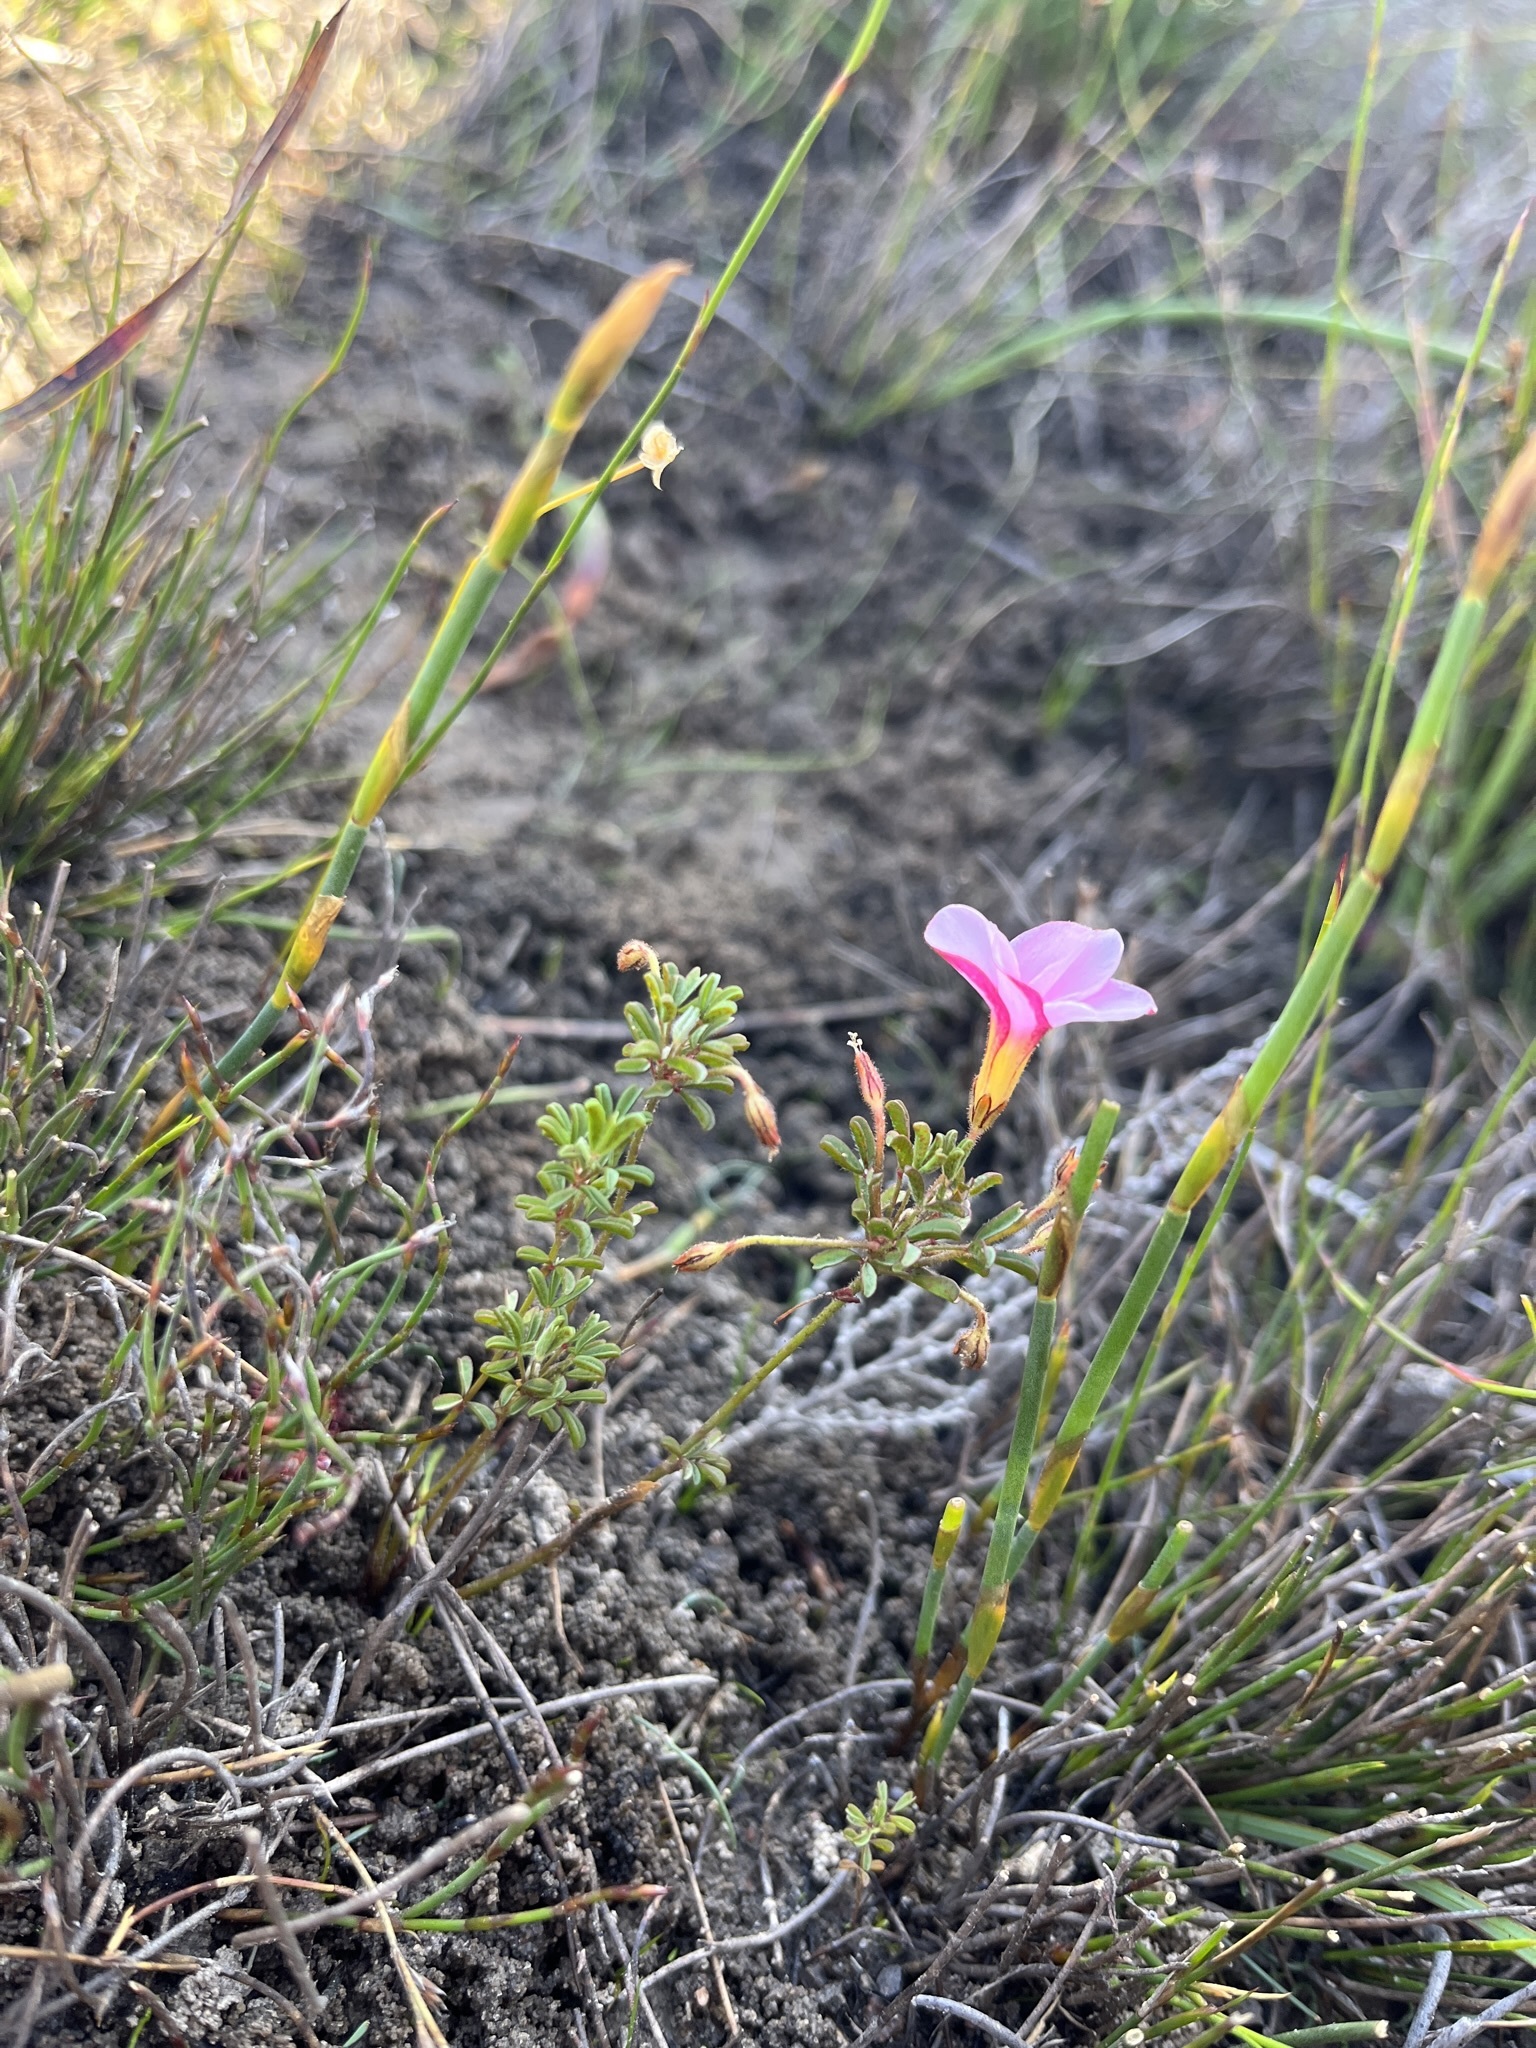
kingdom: Plantae
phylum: Tracheophyta
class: Magnoliopsida
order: Oxalidales
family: Oxalidaceae
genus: Oxalis
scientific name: Oxalis multicaulis
